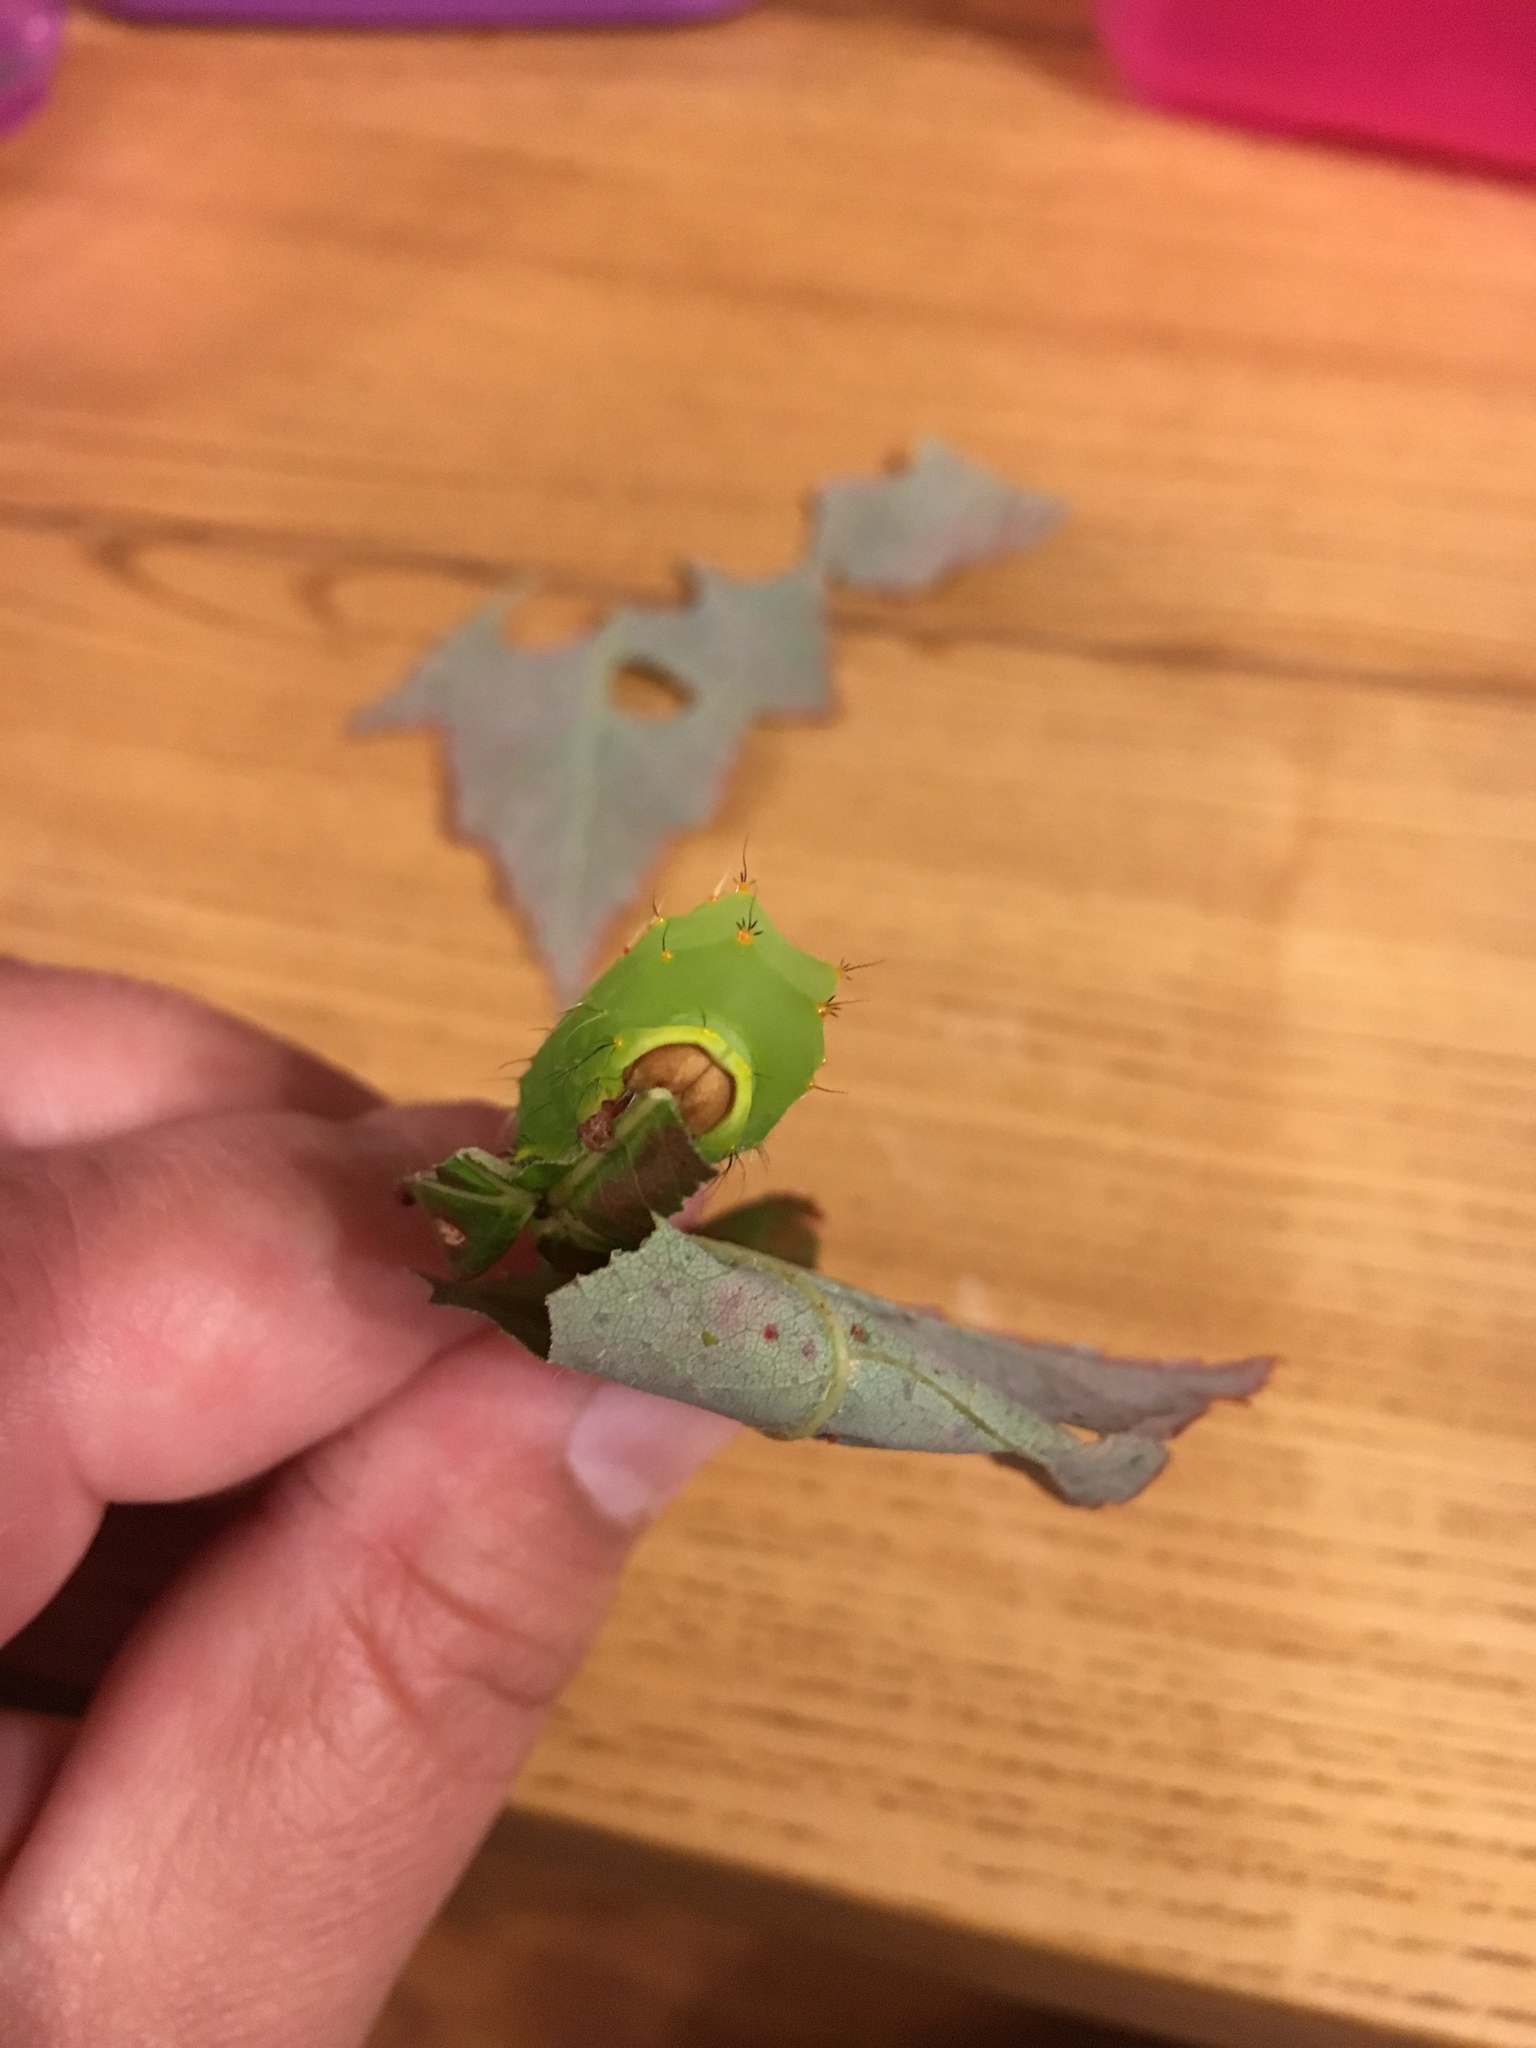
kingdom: Animalia
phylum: Arthropoda
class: Insecta
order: Lepidoptera
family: Saturniidae
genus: Antheraea
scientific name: Antheraea polyphemus
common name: Polyphemus moth
